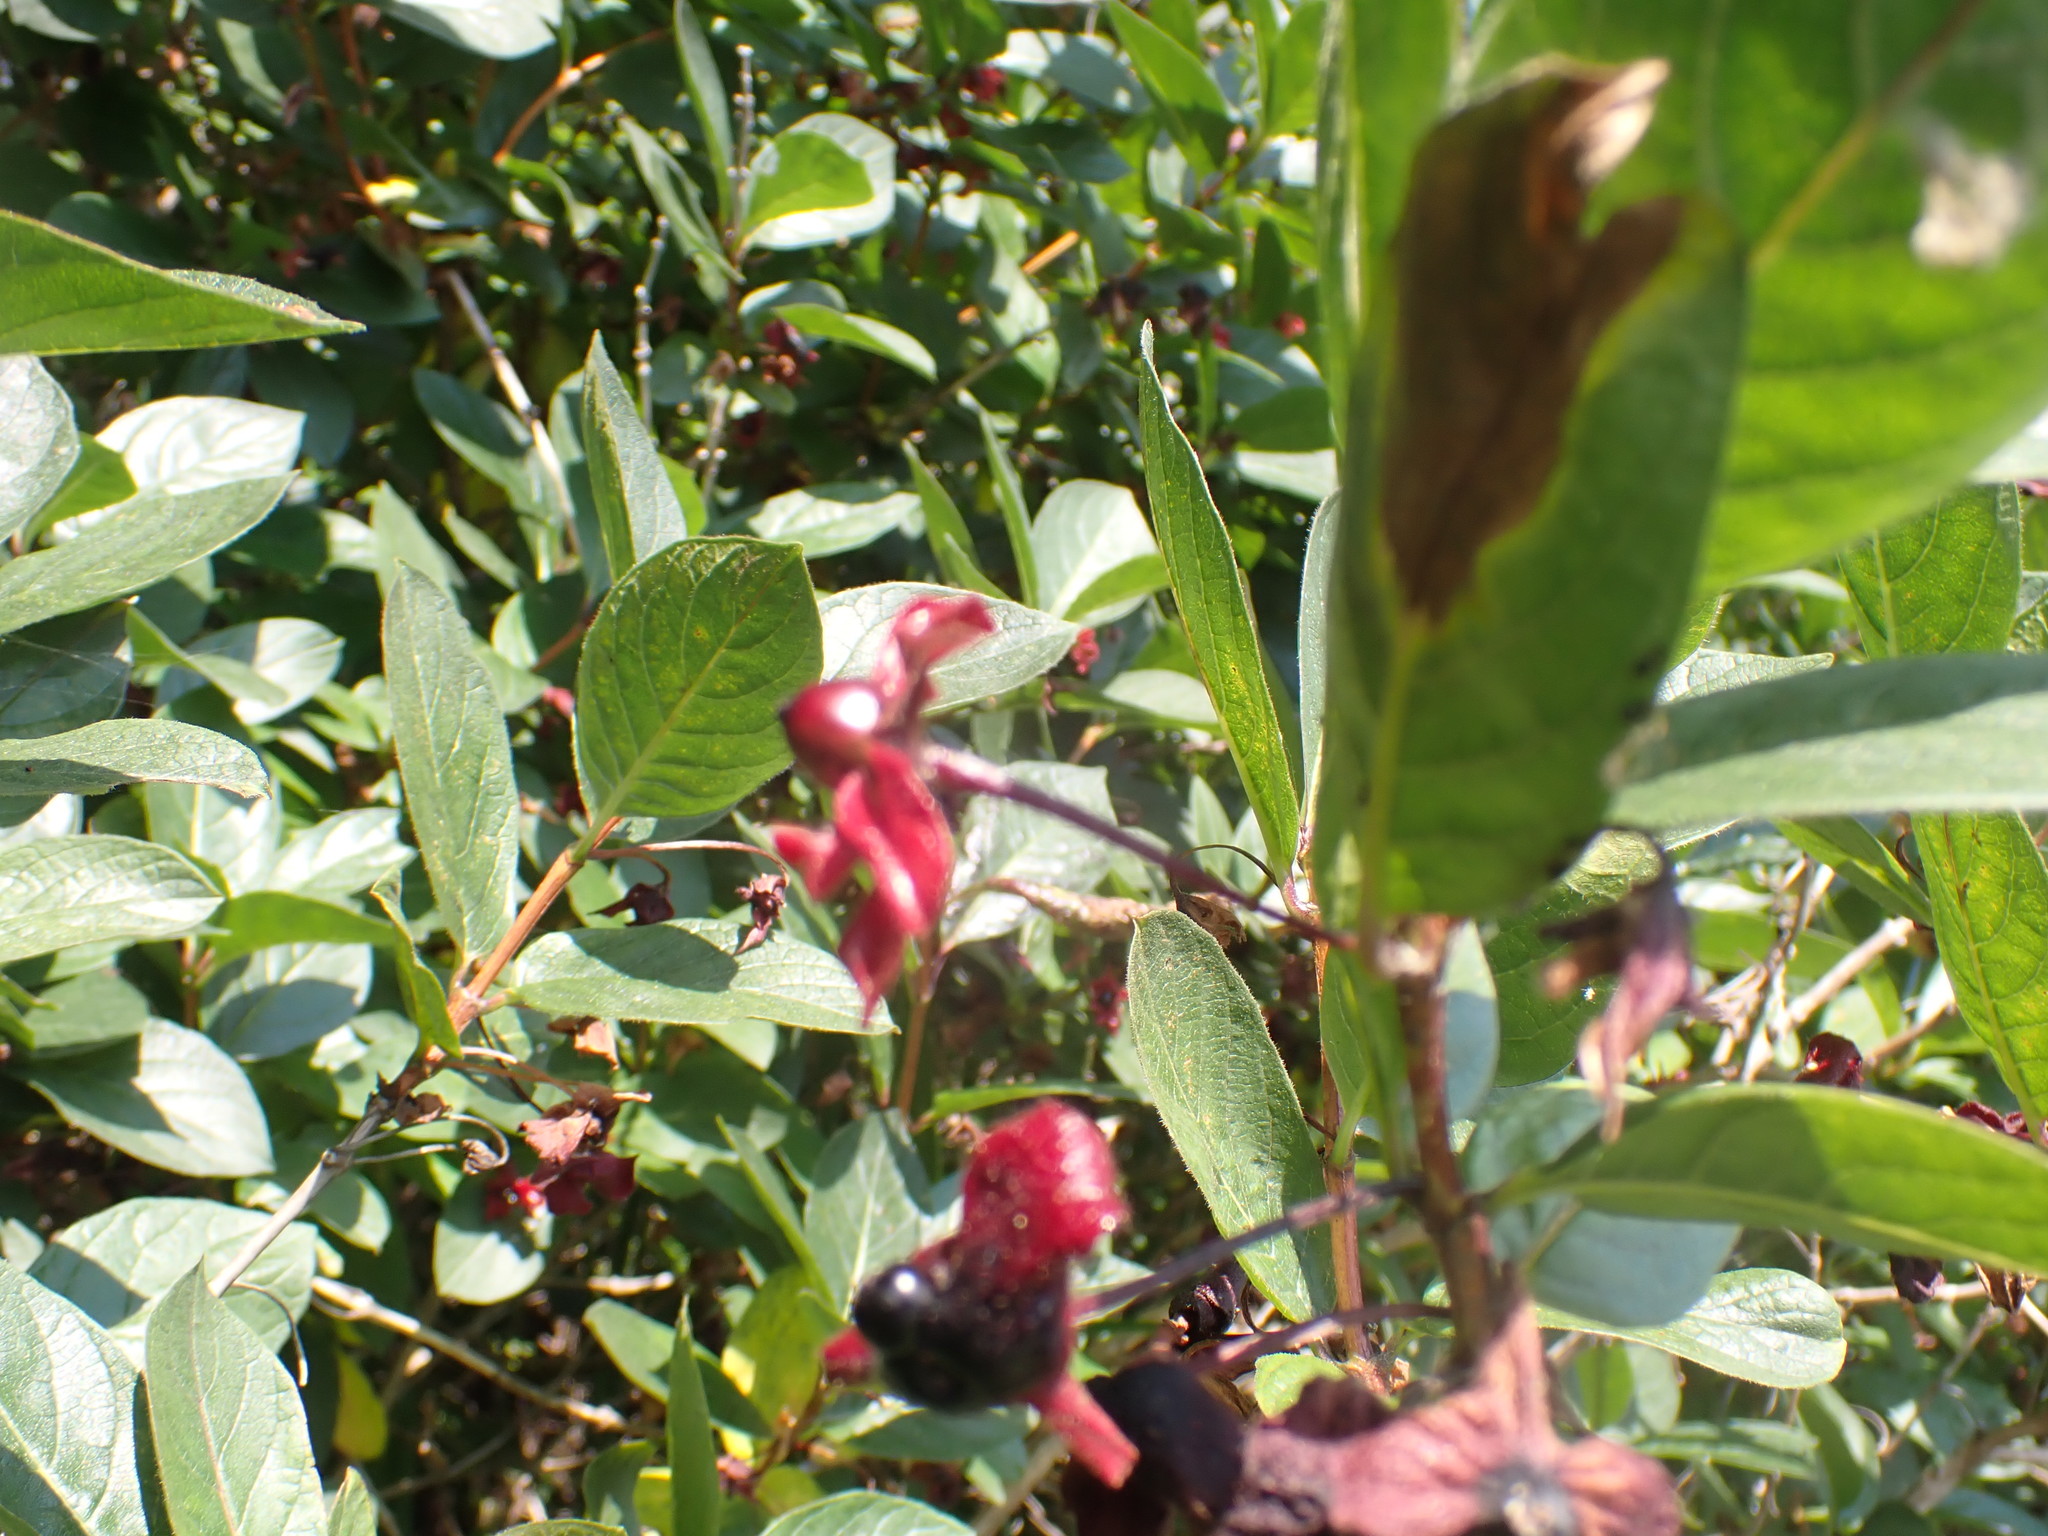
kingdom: Plantae
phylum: Tracheophyta
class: Magnoliopsida
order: Dipsacales
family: Caprifoliaceae
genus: Lonicera
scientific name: Lonicera involucrata
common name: Californian honeysuckle
